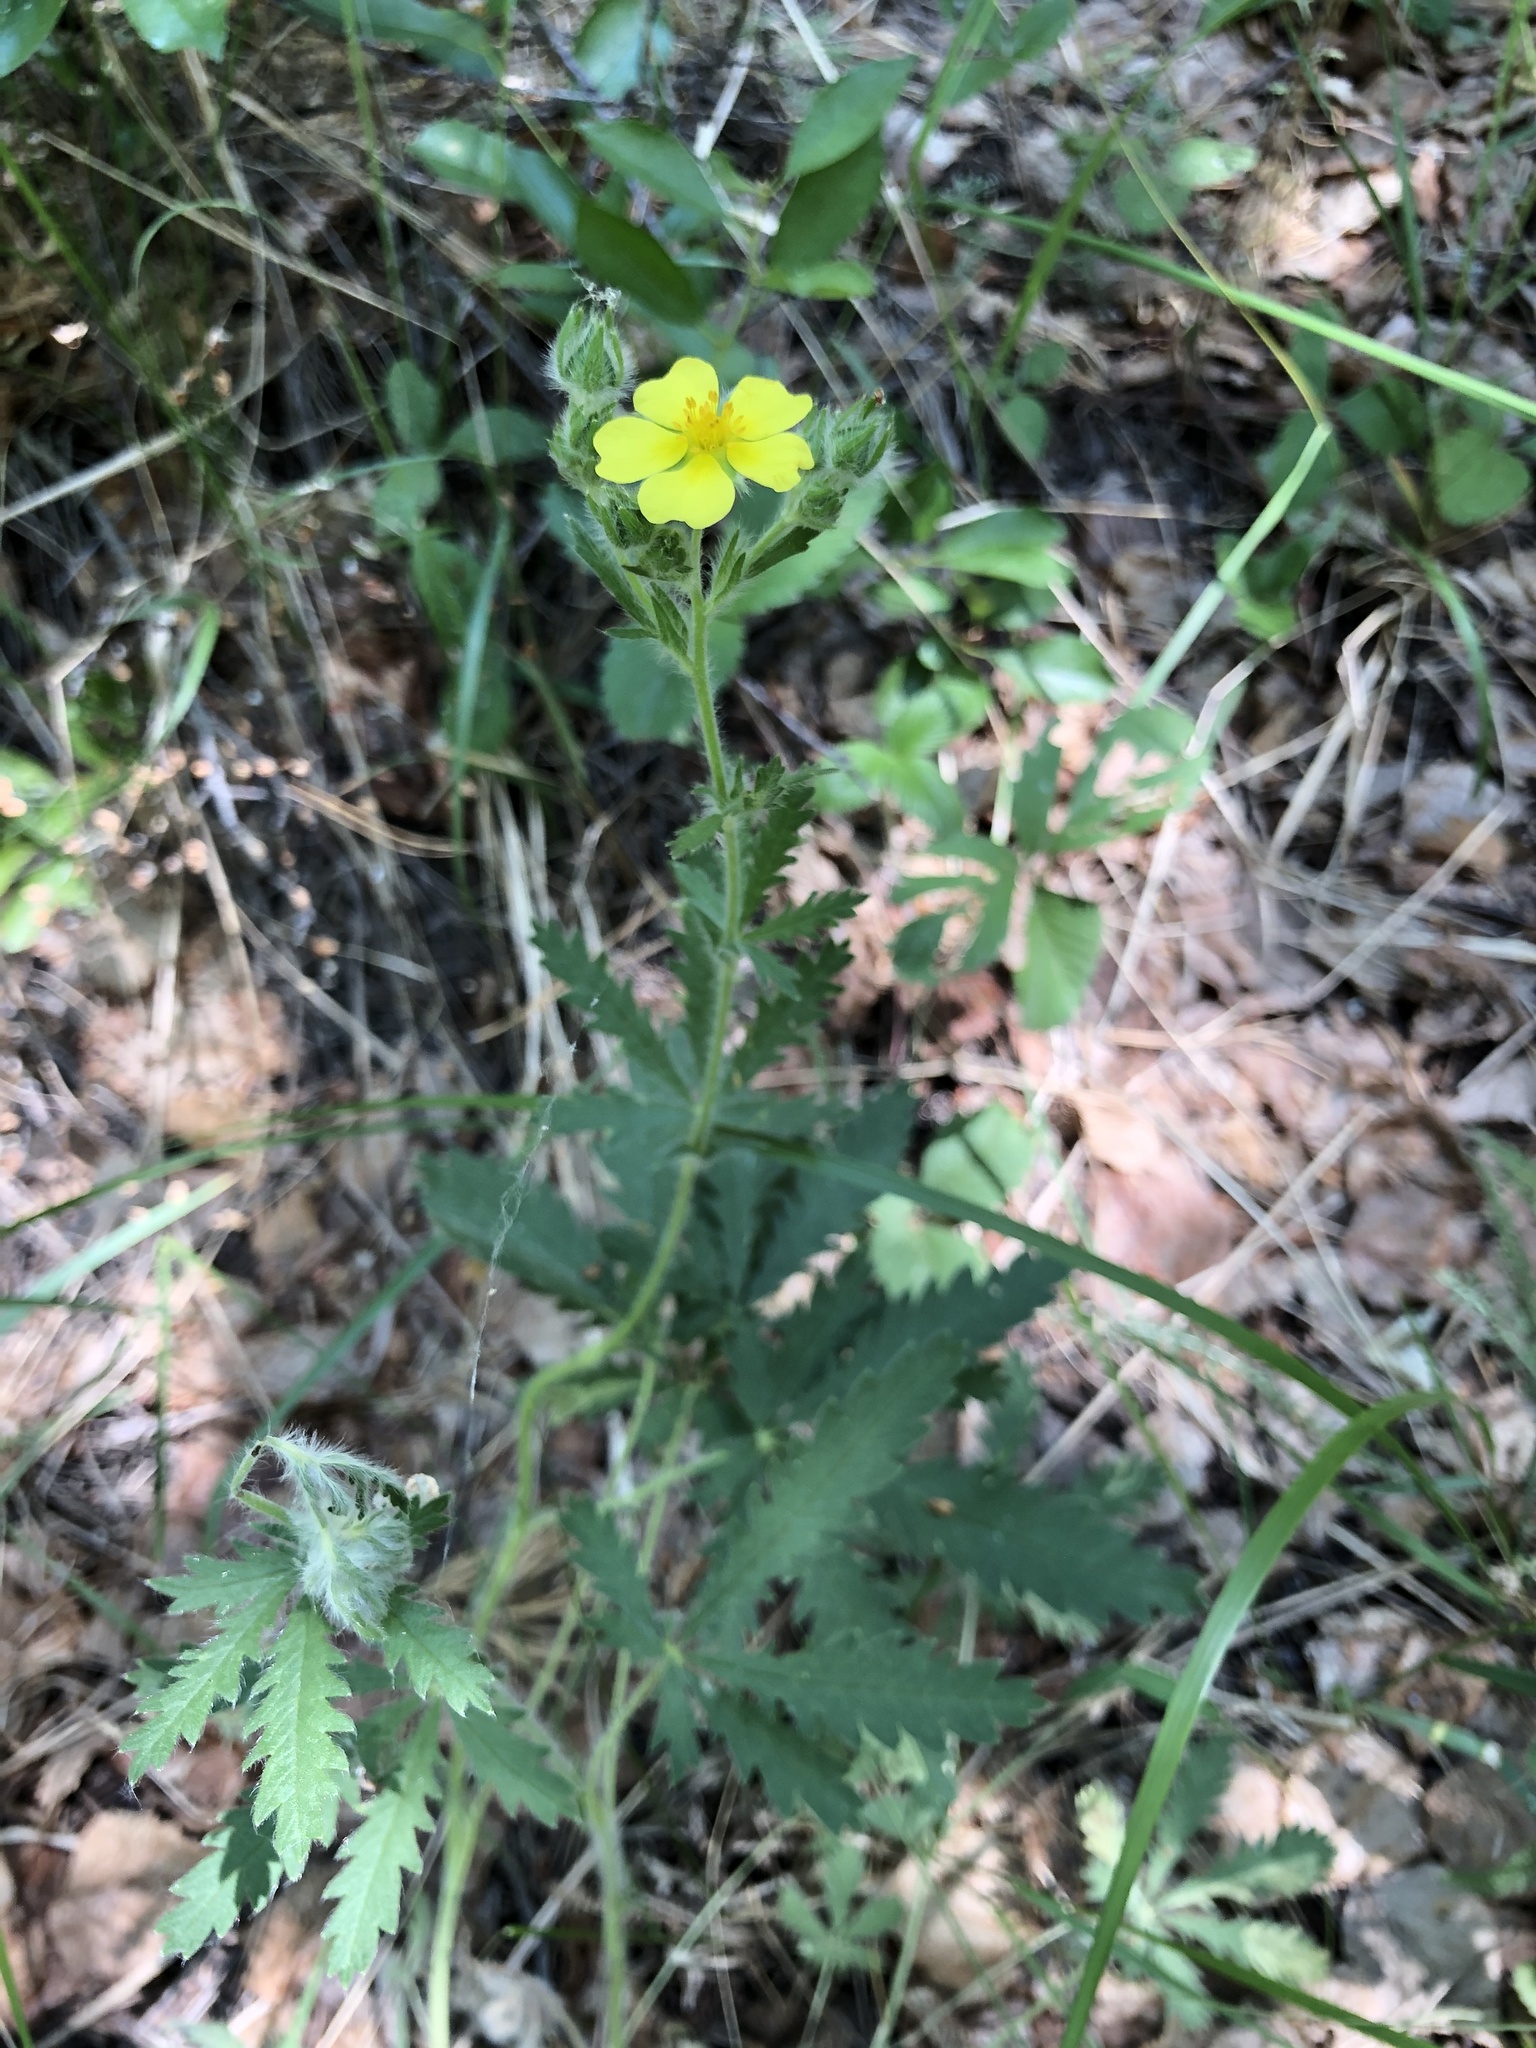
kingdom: Plantae
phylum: Tracheophyta
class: Magnoliopsida
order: Rosales
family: Rosaceae
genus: Potentilla
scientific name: Potentilla recta
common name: Sulphur cinquefoil
